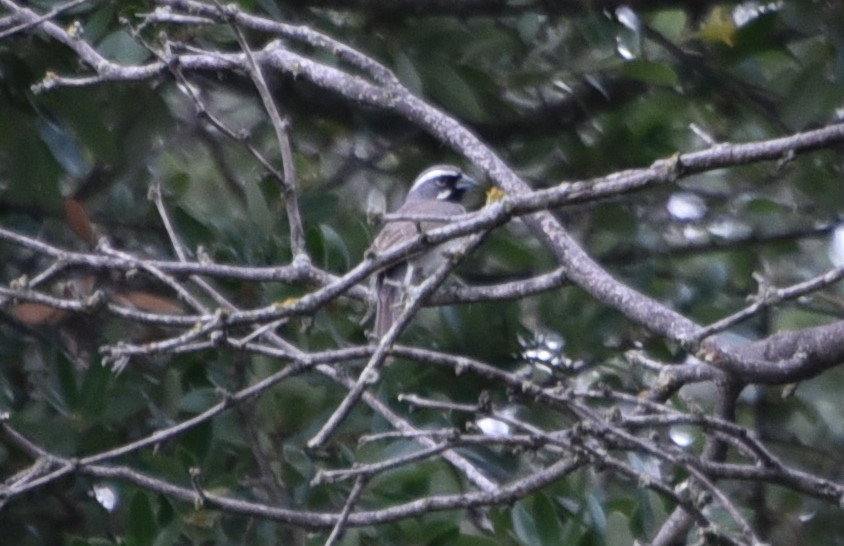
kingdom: Animalia
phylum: Chordata
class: Aves
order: Passeriformes
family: Passerellidae
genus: Amphispiza
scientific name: Amphispiza bilineata
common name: Black-throated sparrow
